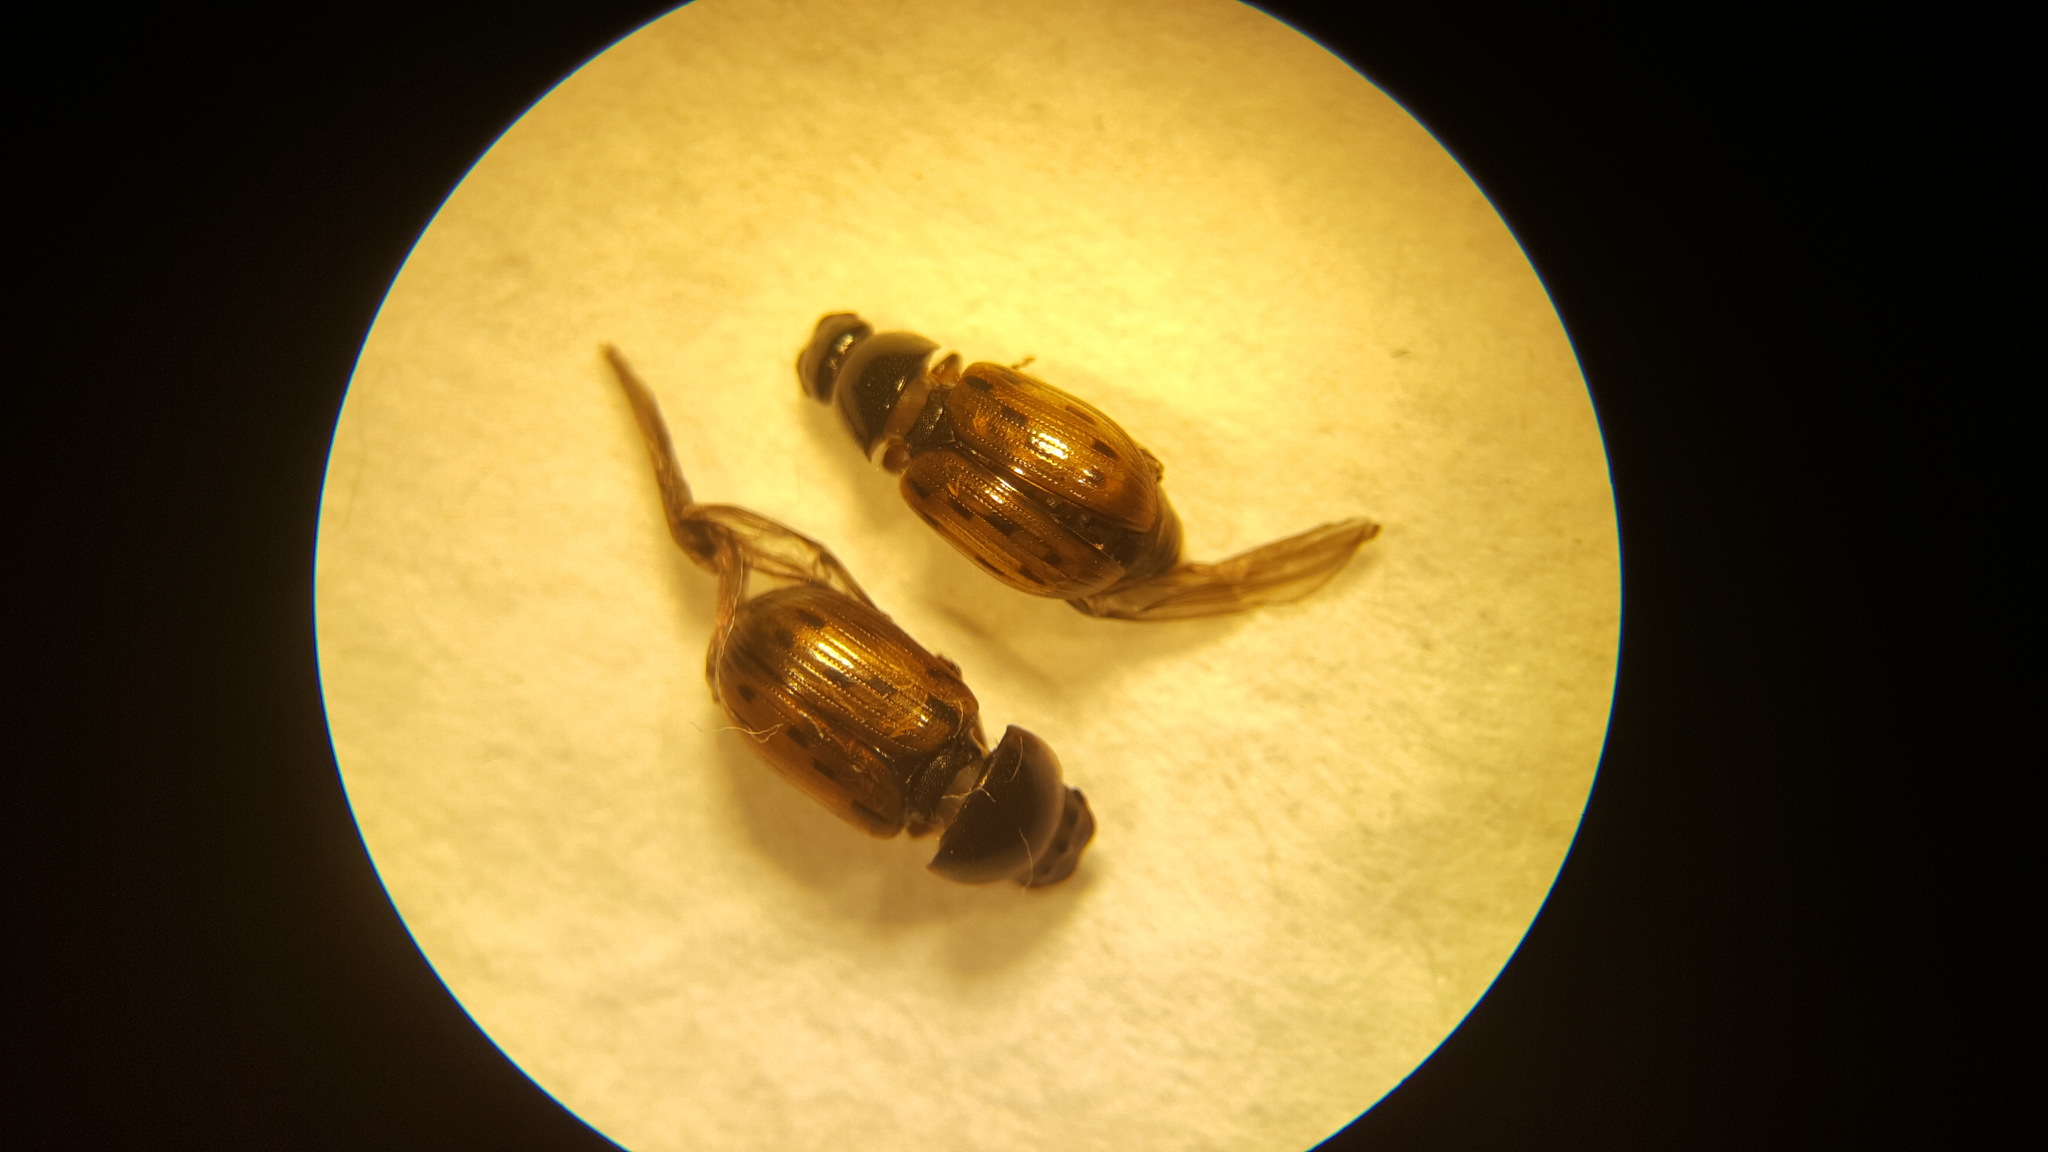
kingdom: Animalia
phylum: Arthropoda
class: Insecta
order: Coleoptera
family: Scarabaeidae
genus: Chilothorax
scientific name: Chilothorax conspurcatus
